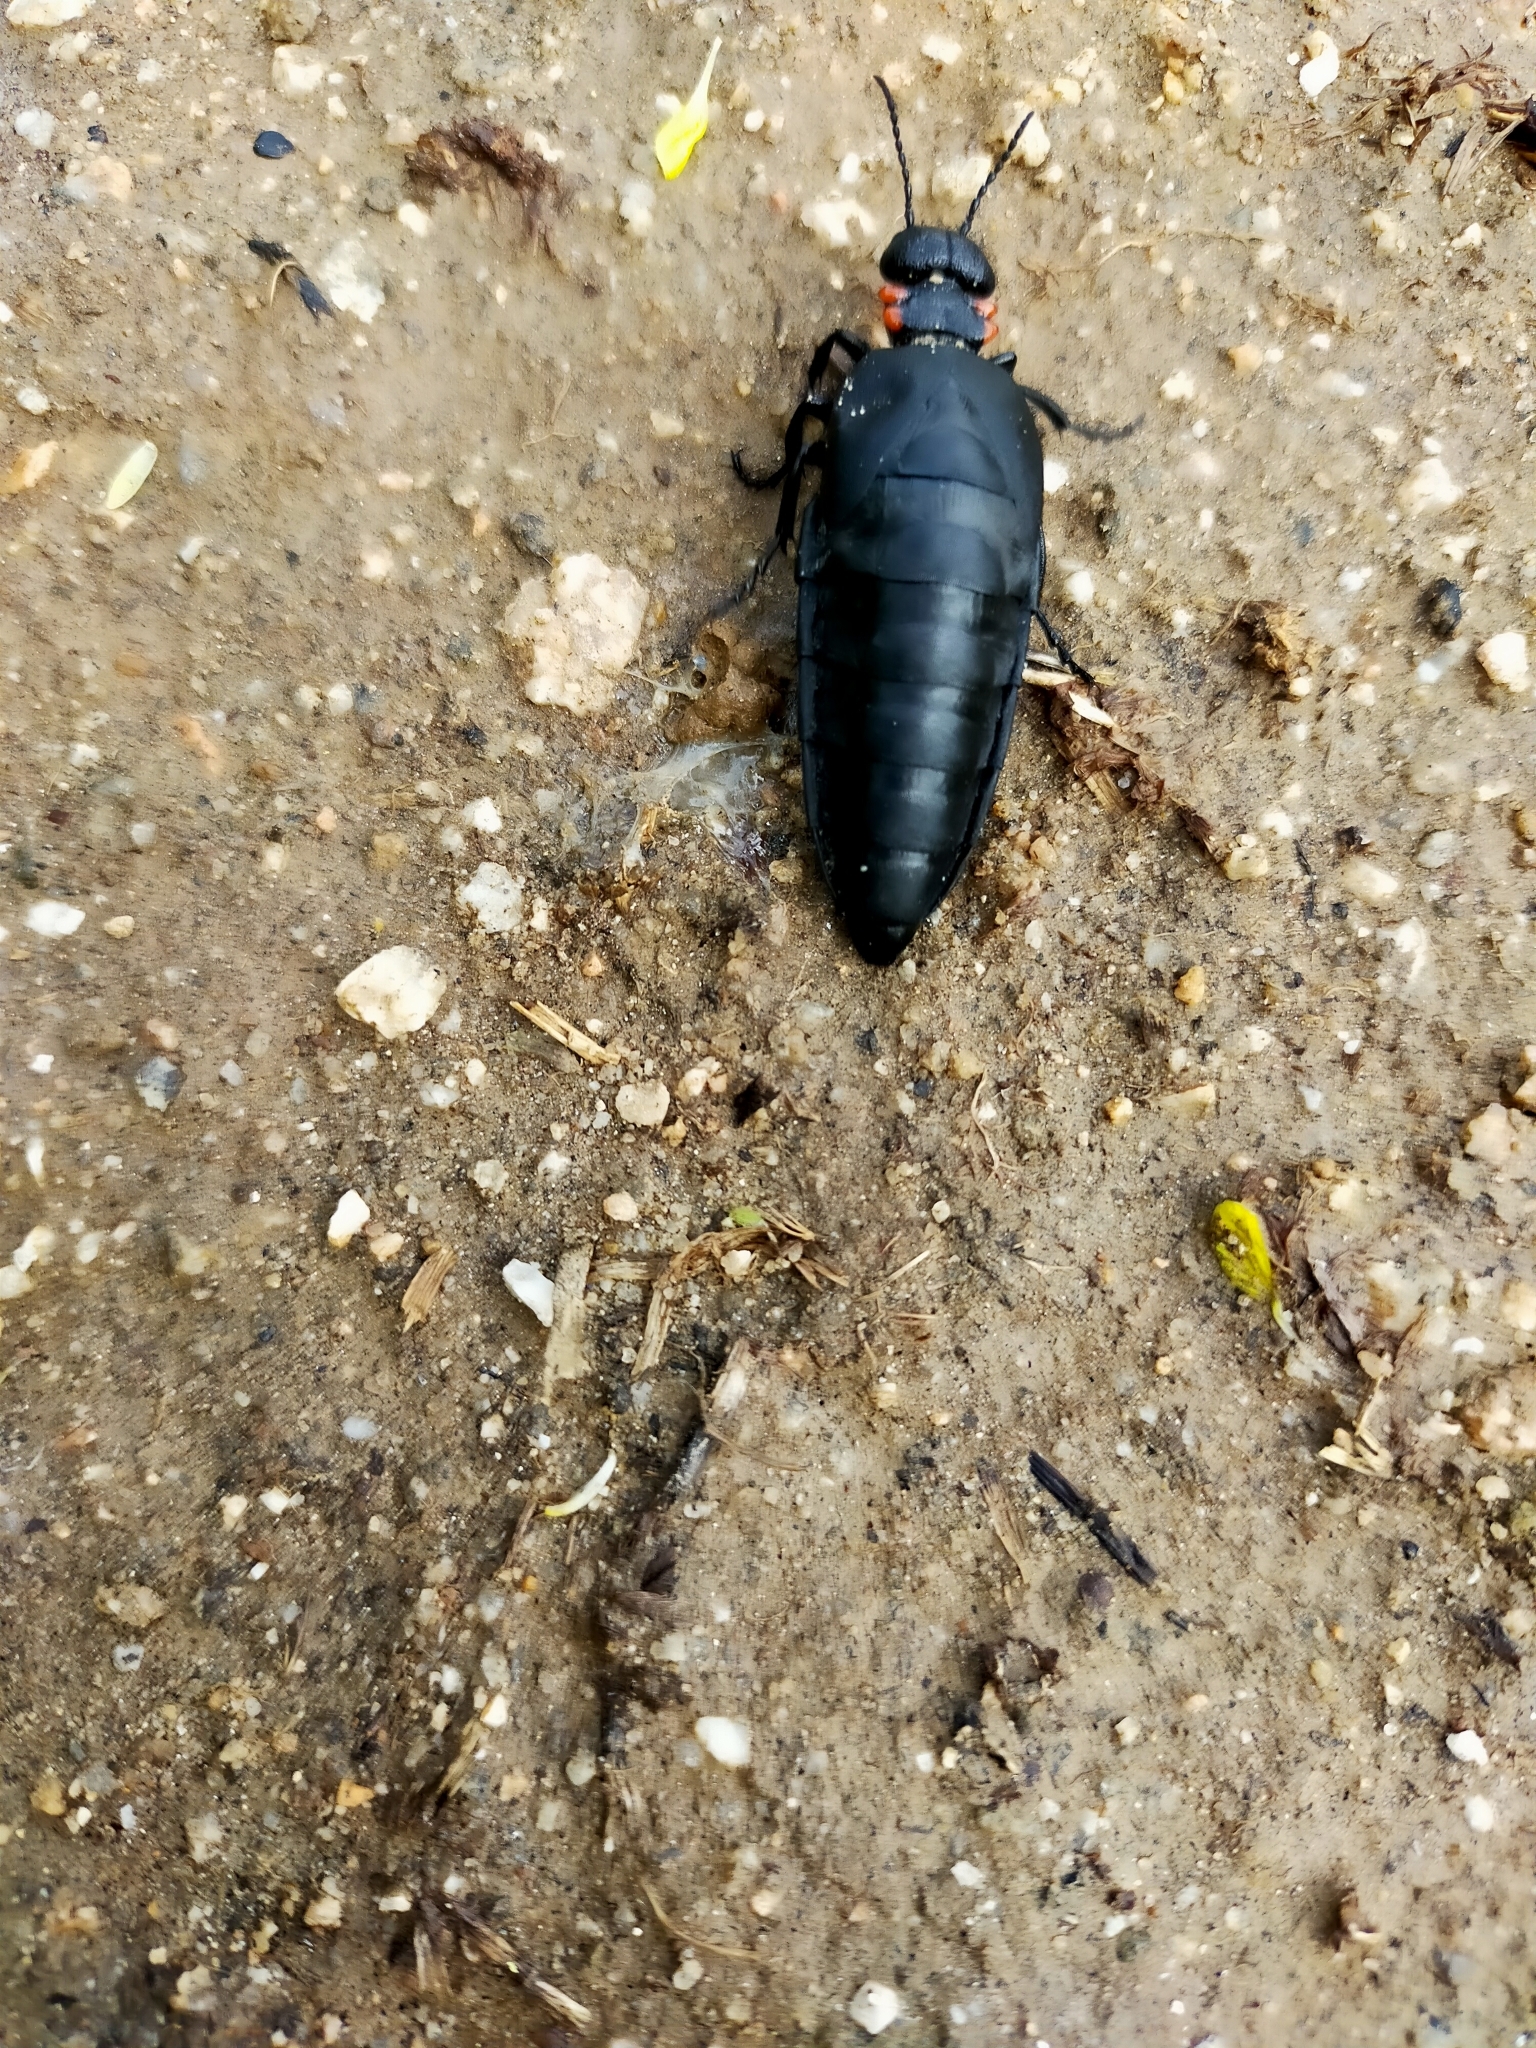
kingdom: Animalia
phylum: Arthropoda
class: Insecta
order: Coleoptera
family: Meloidae
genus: Physomeloe
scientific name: Physomeloe corallifer
